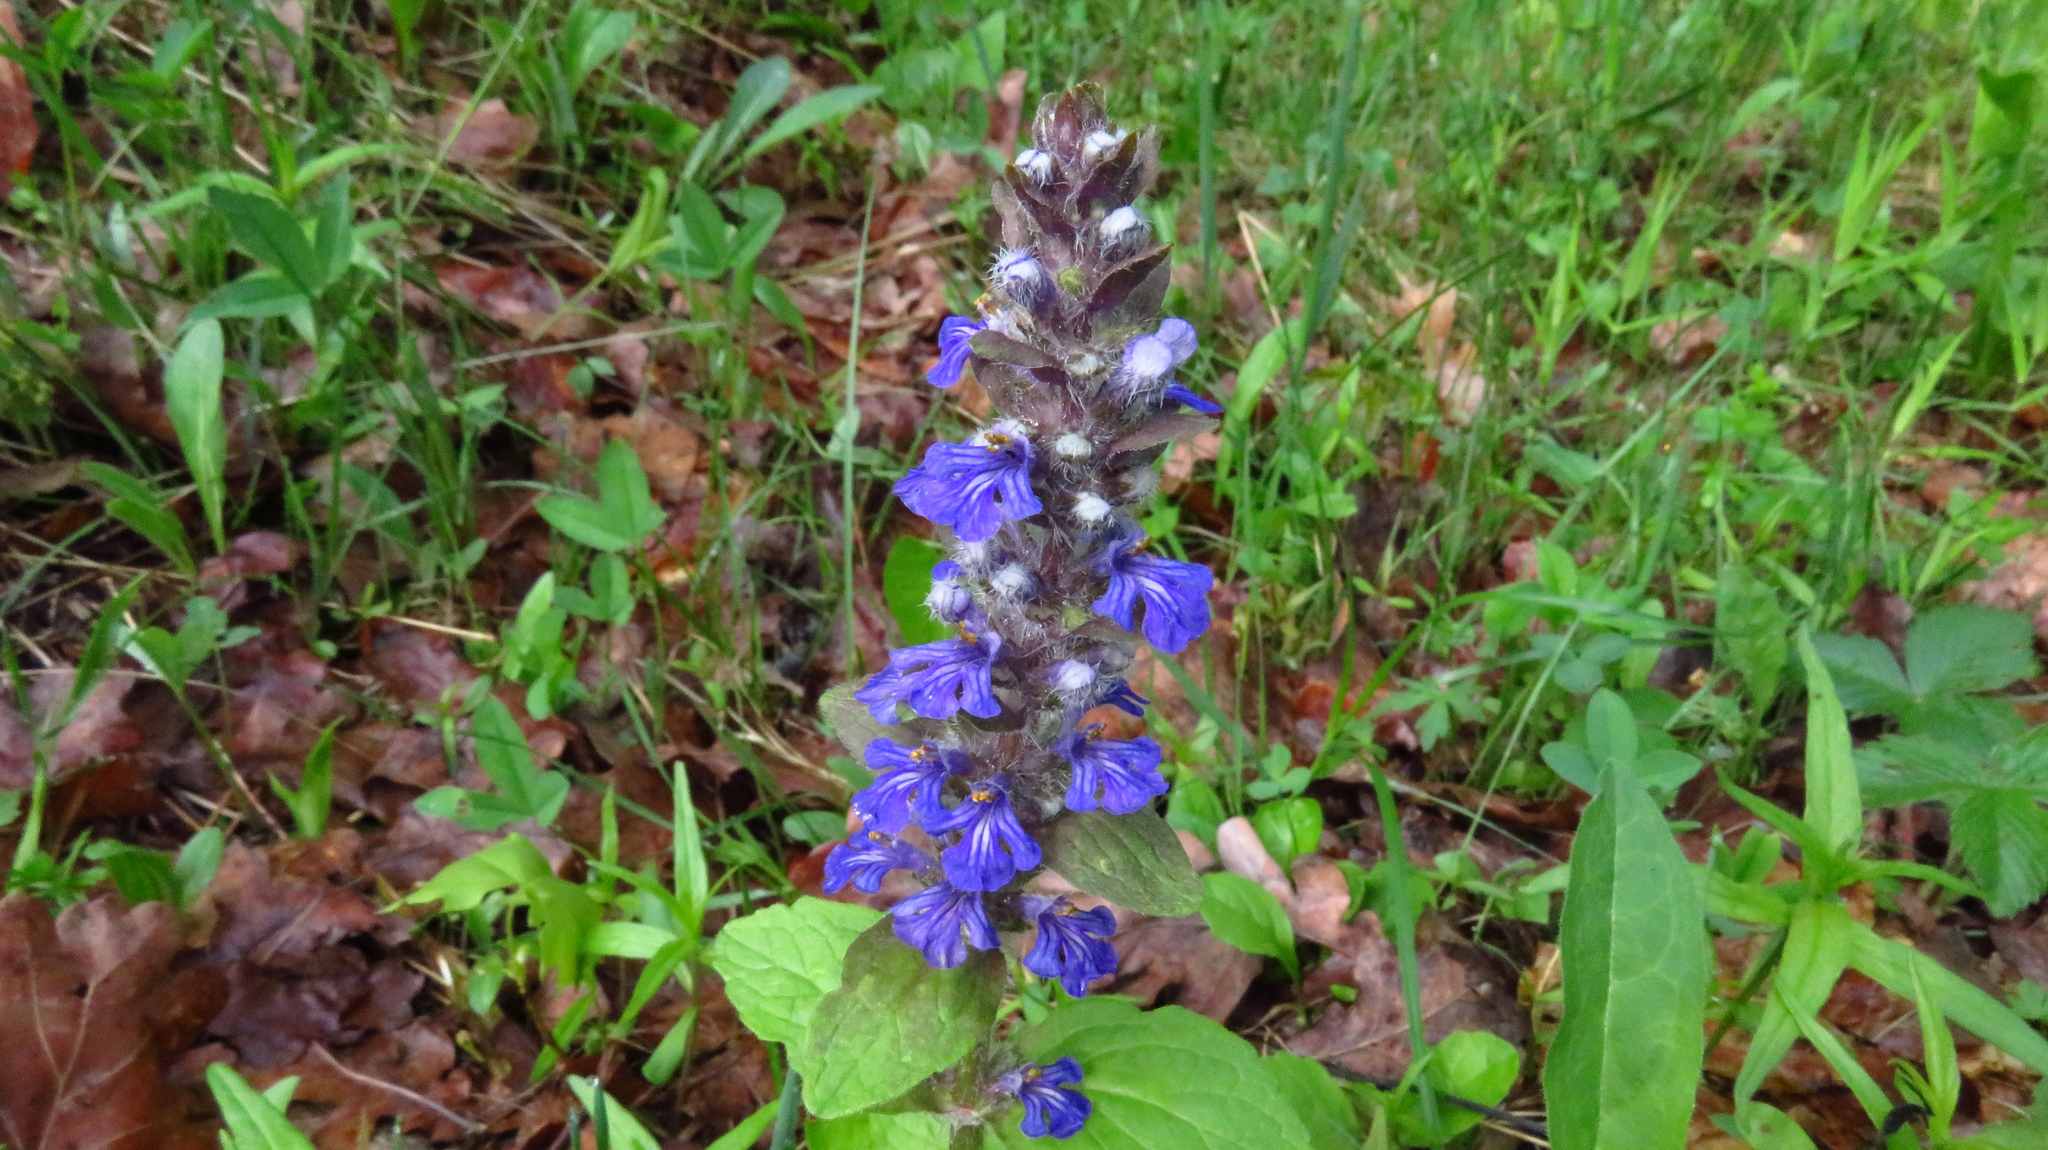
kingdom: Plantae
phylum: Tracheophyta
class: Magnoliopsida
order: Lamiales
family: Lamiaceae
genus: Ajuga
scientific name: Ajuga reptans
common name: Bugle
